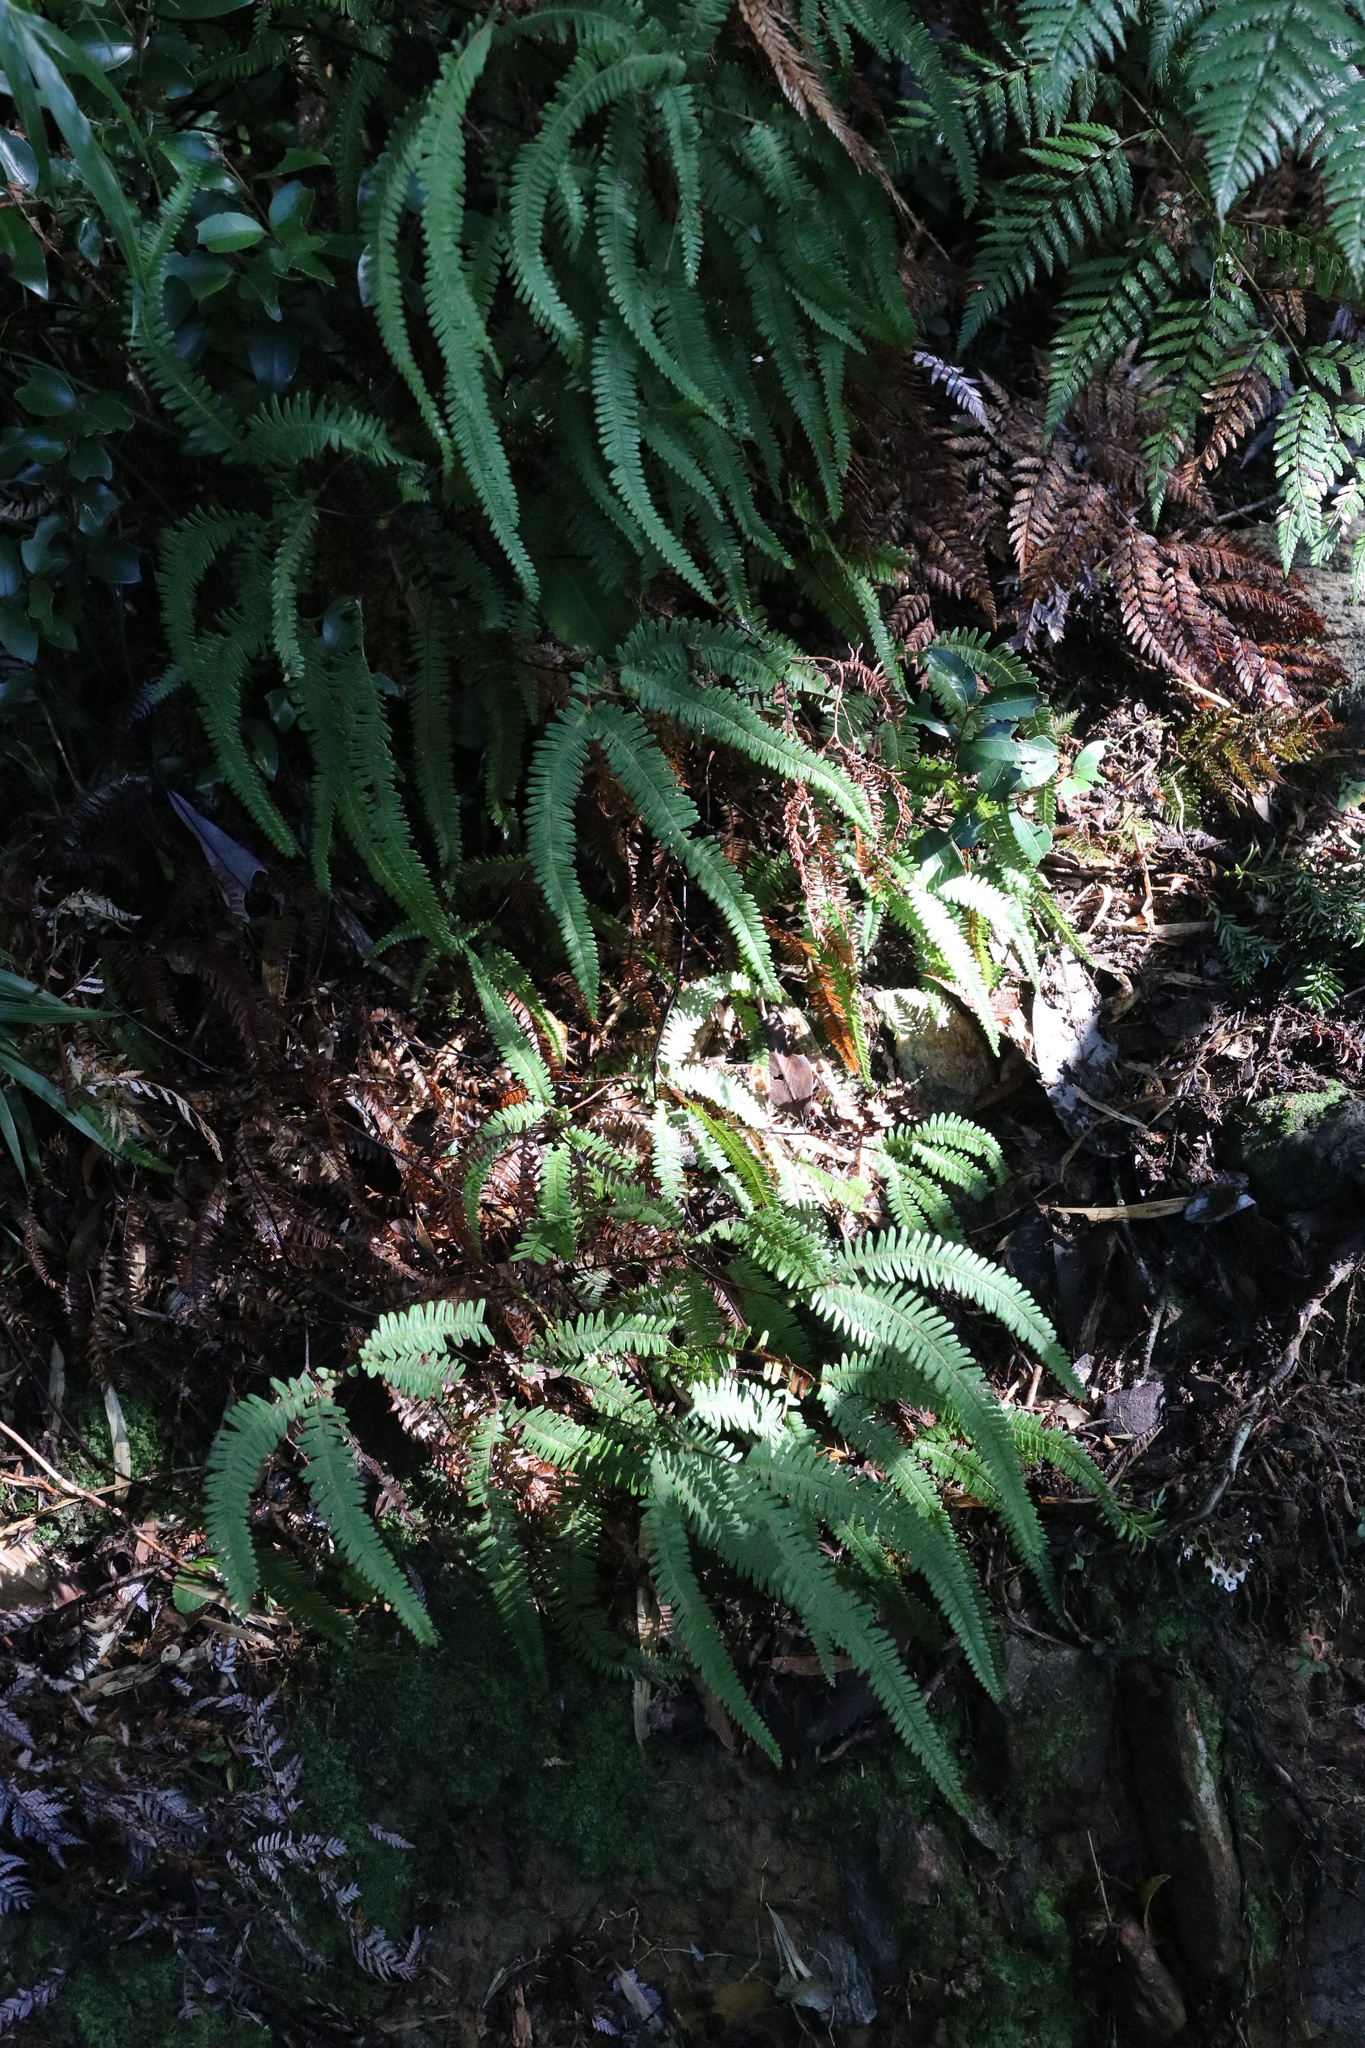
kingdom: Plantae
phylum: Tracheophyta
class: Polypodiopsida
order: Gleicheniales
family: Gleicheniaceae
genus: Sticherus
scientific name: Sticherus quadripartitus
